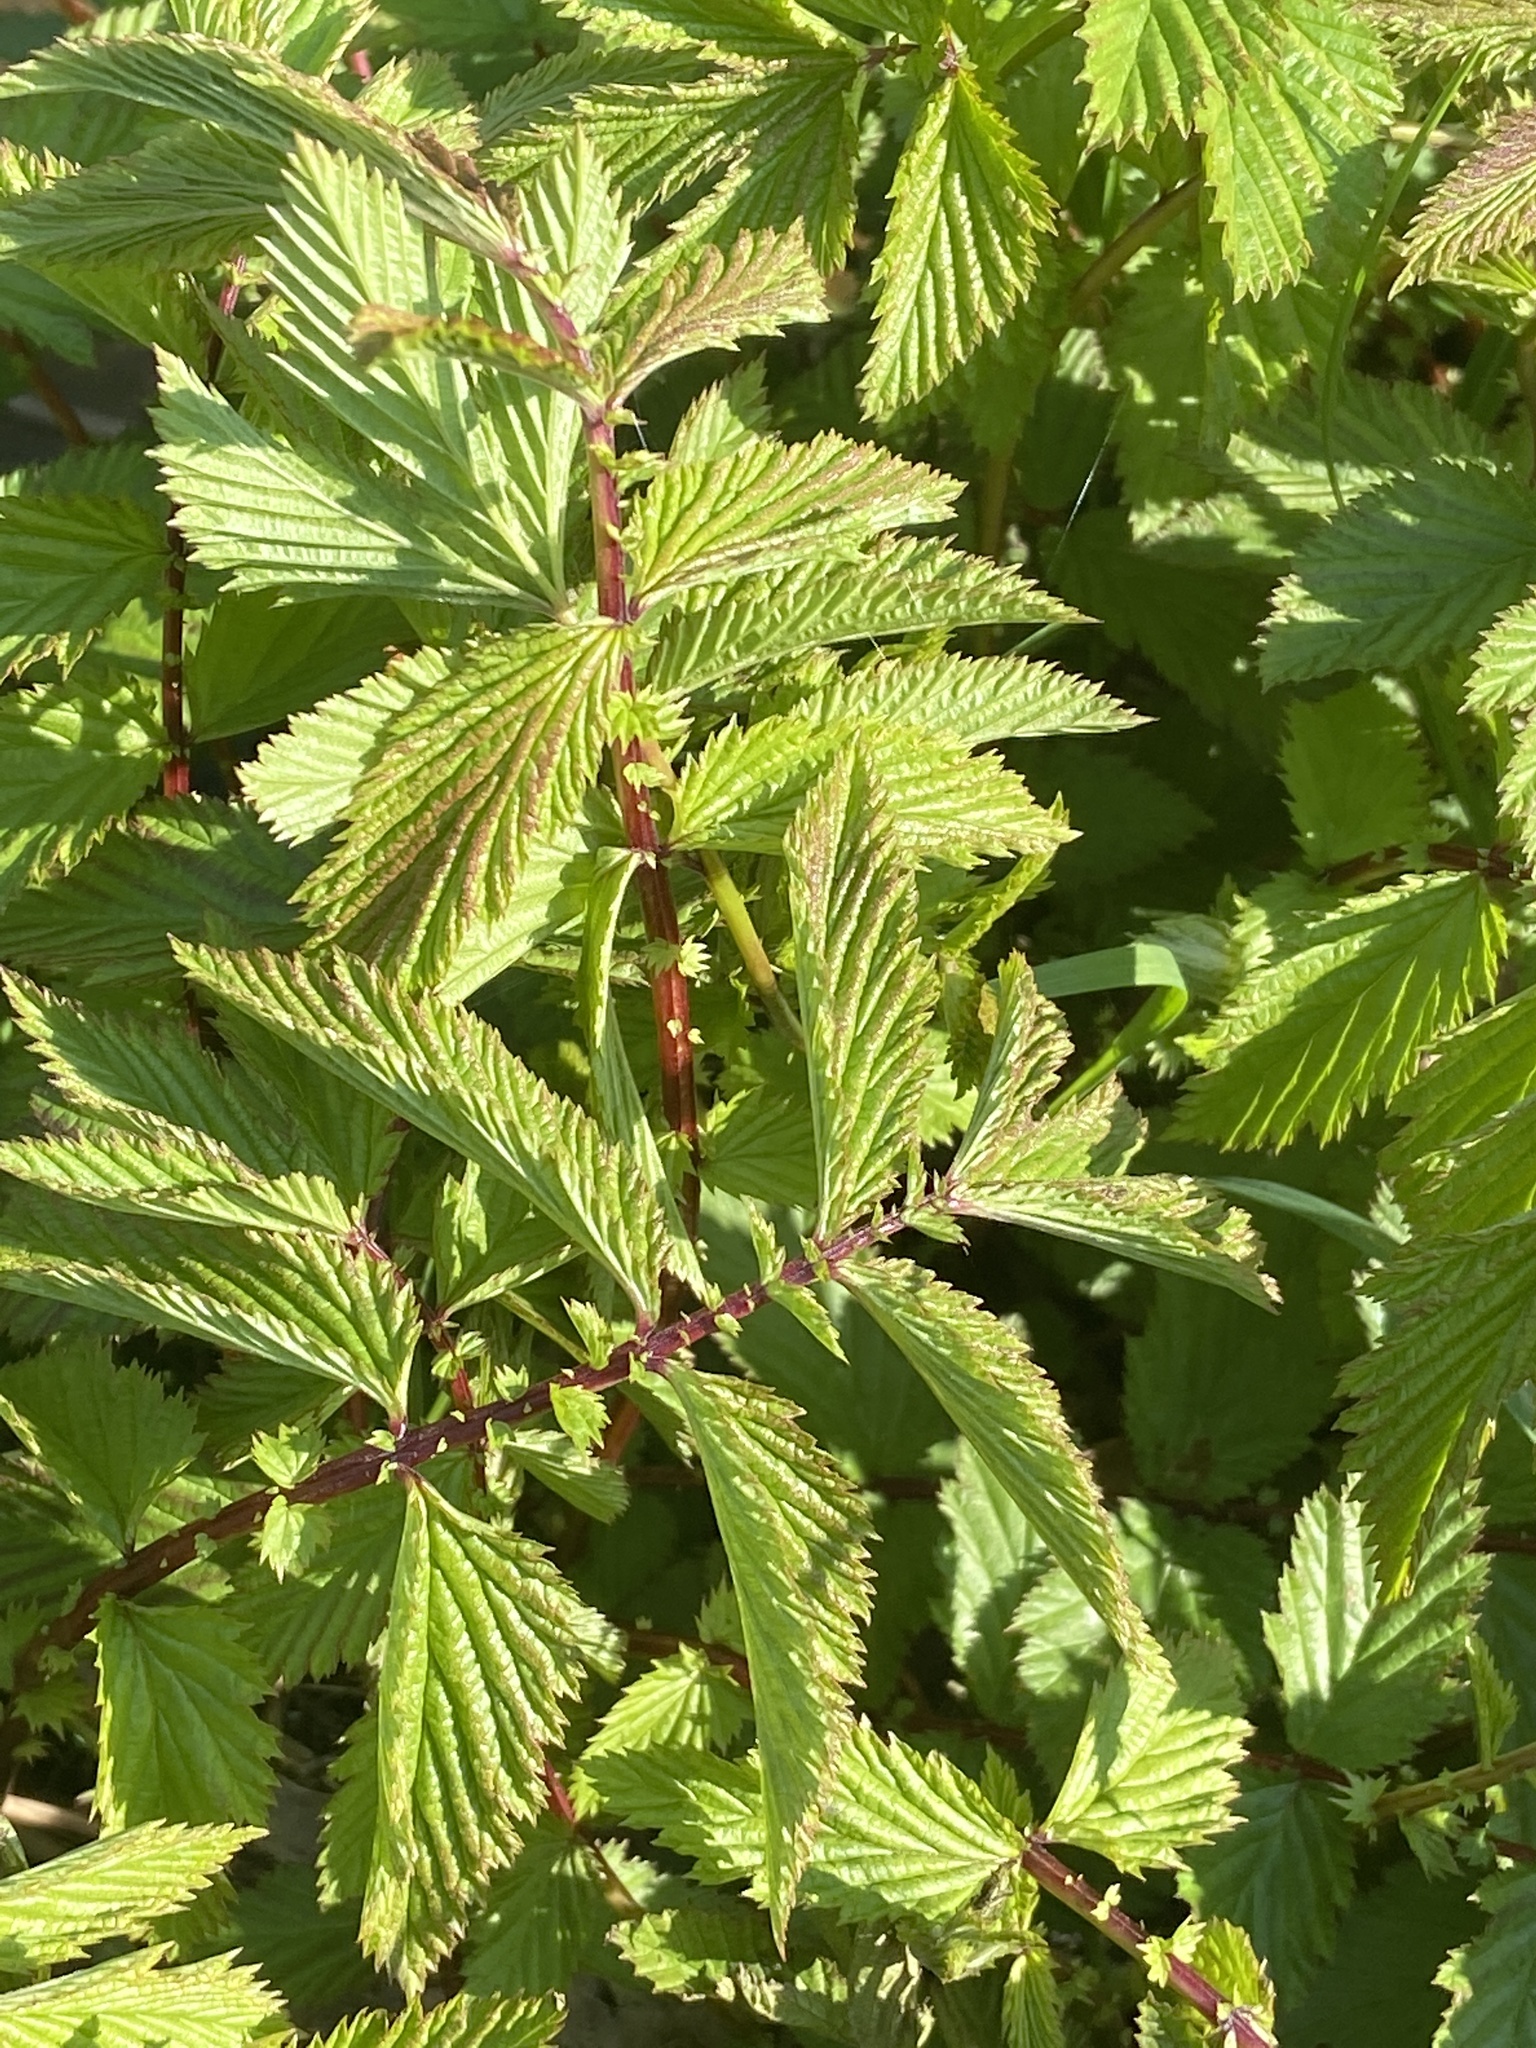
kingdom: Plantae
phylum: Tracheophyta
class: Magnoliopsida
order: Rosales
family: Rosaceae
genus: Filipendula
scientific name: Filipendula ulmaria
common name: Meadowsweet
